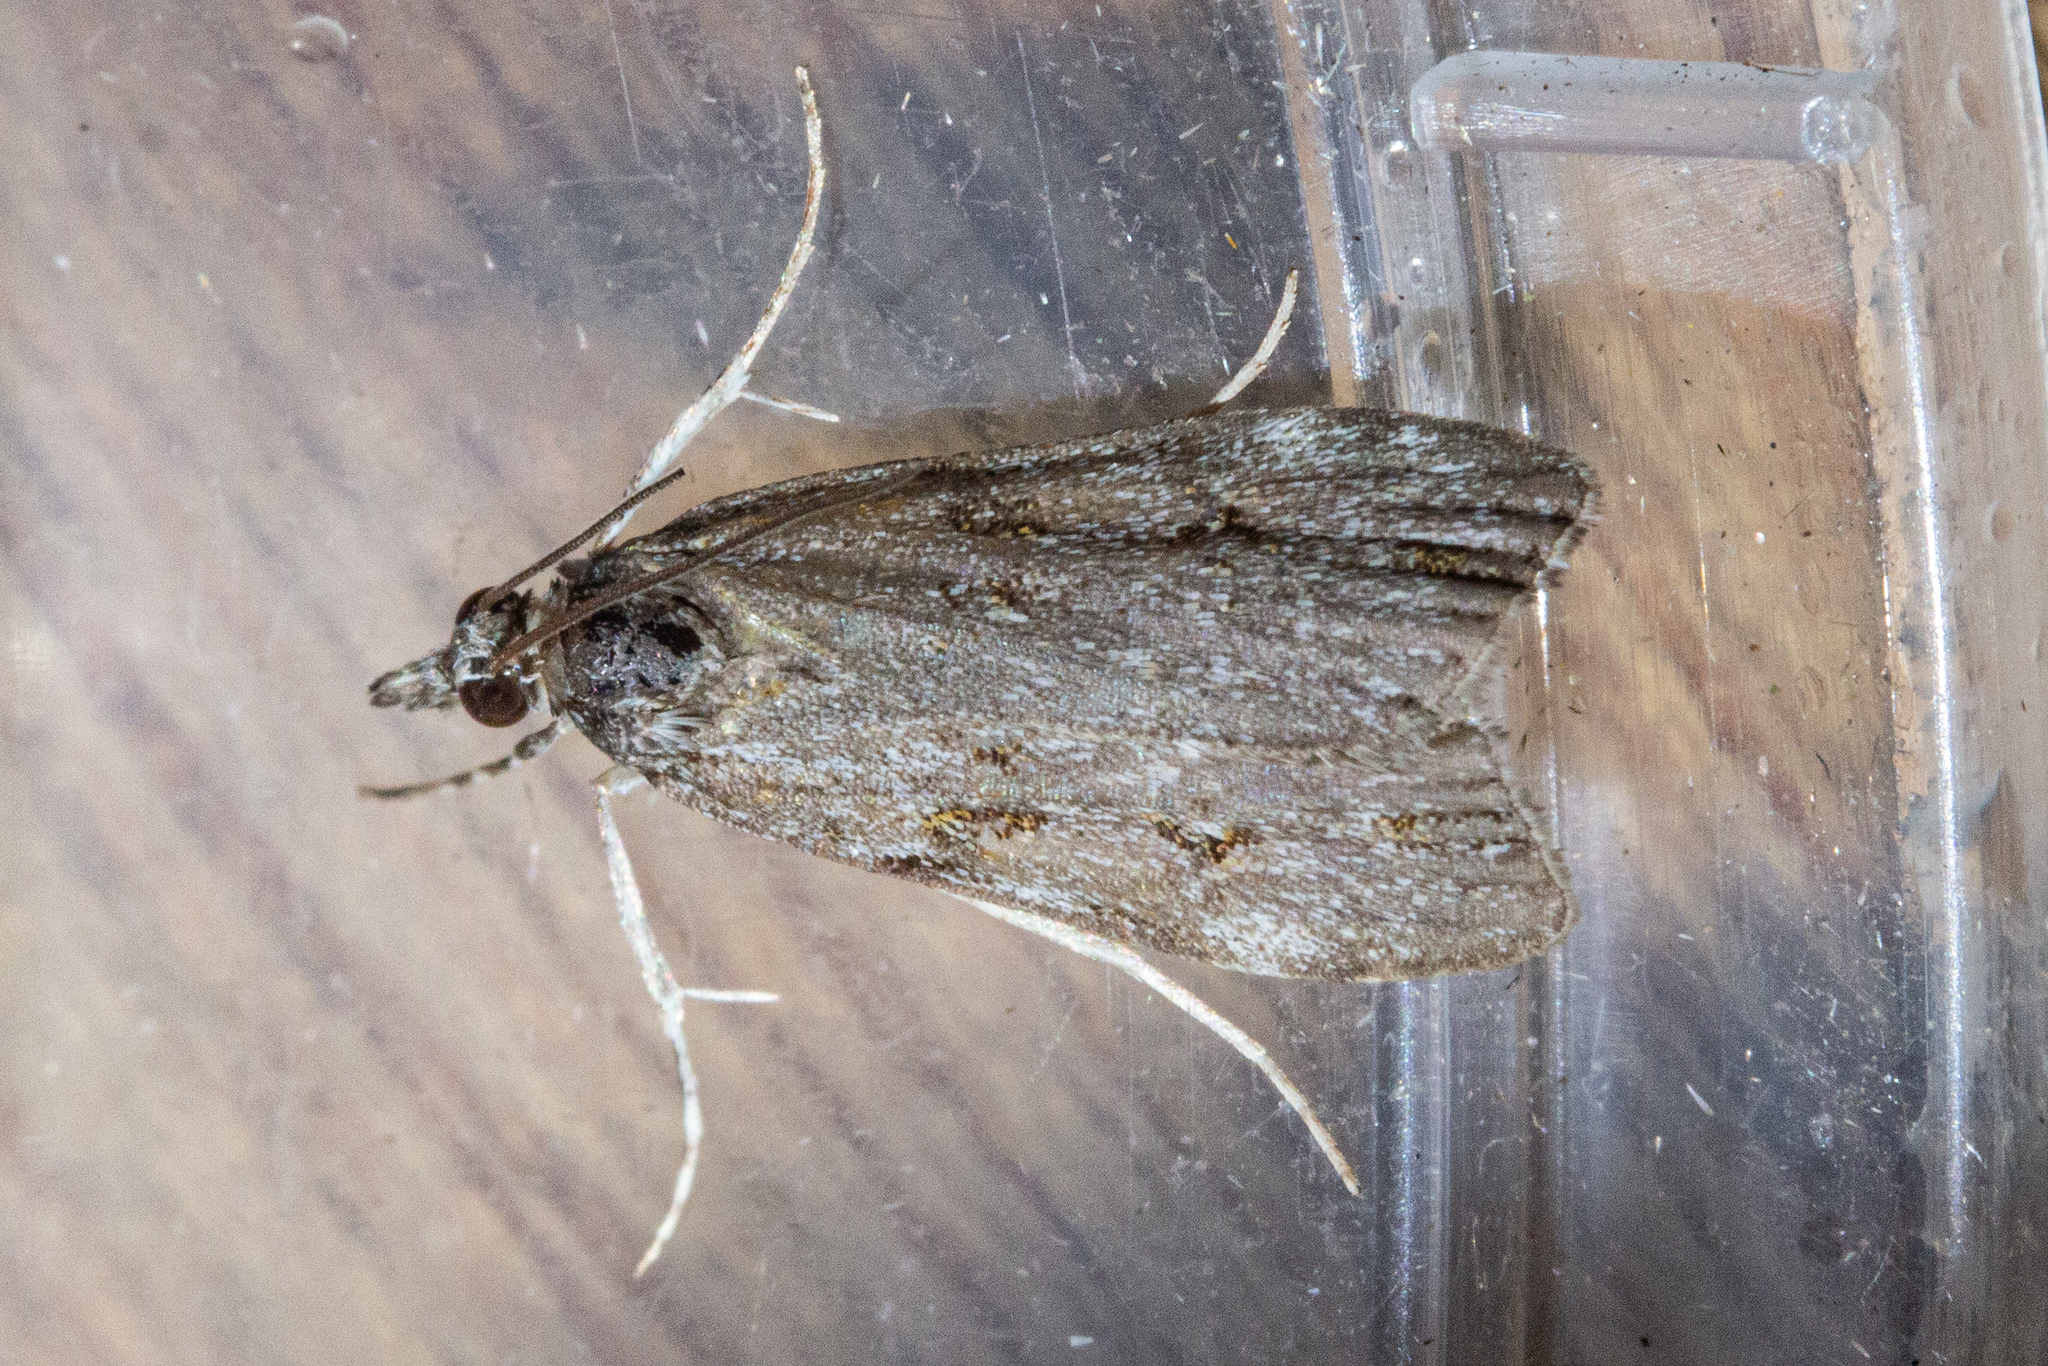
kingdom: Animalia
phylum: Arthropoda
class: Insecta
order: Lepidoptera
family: Crambidae
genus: Eudonia
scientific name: Eudonia cymatias
